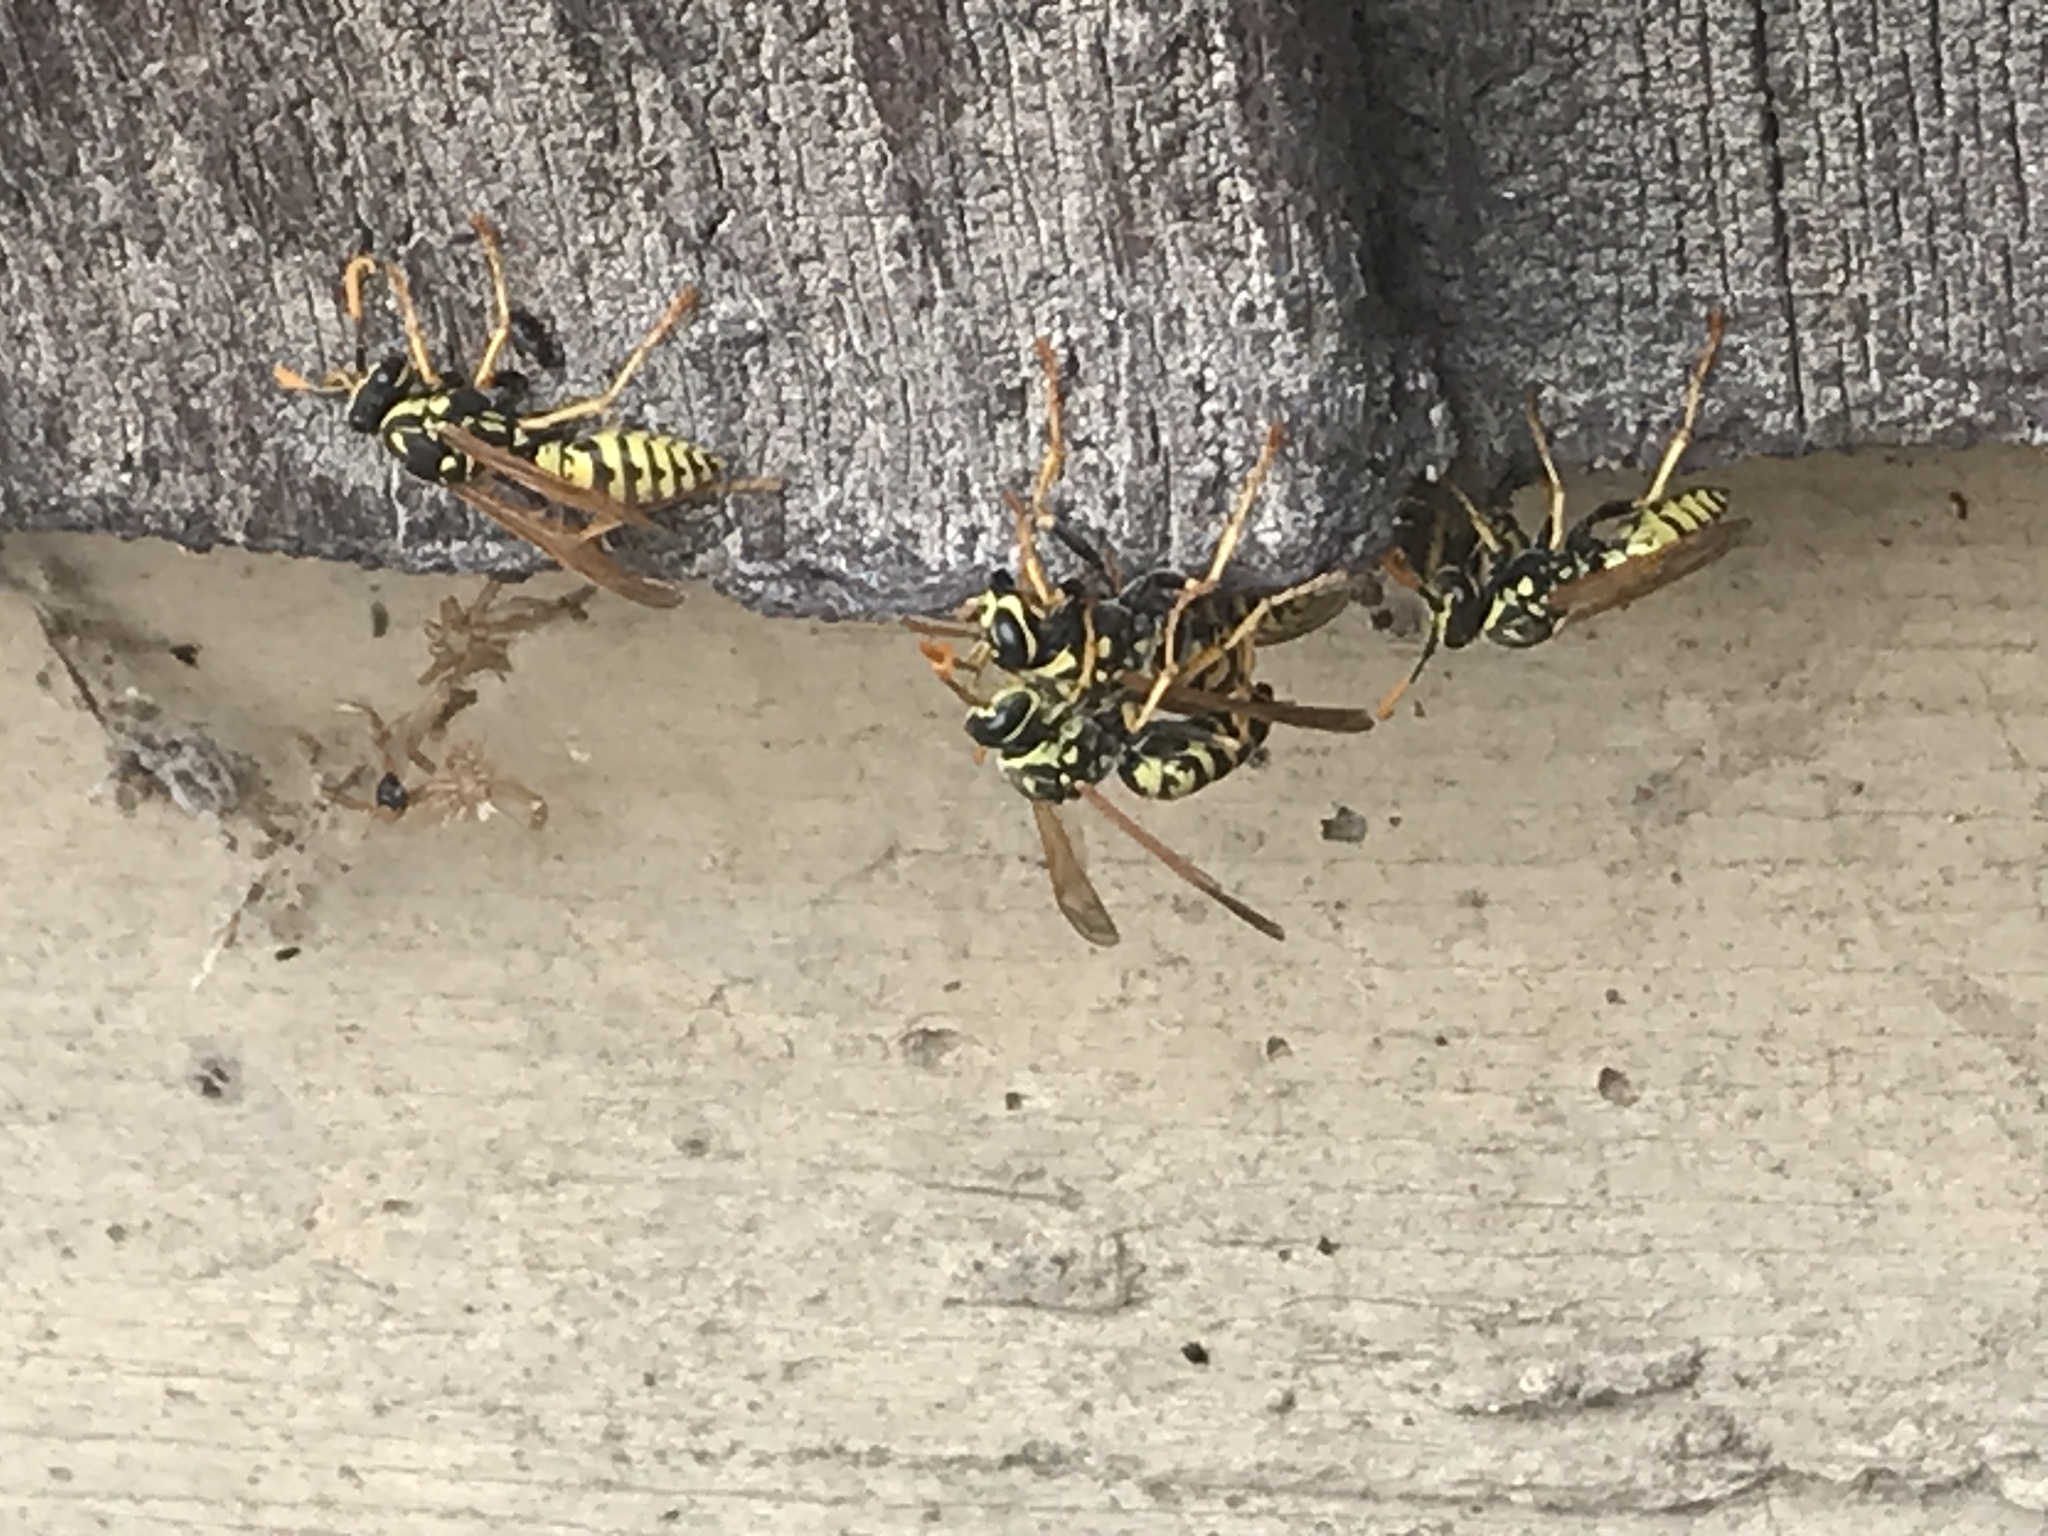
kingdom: Animalia
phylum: Arthropoda
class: Insecta
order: Hymenoptera
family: Eumenidae
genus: Polistes
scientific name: Polistes dominula
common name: Paper wasp
